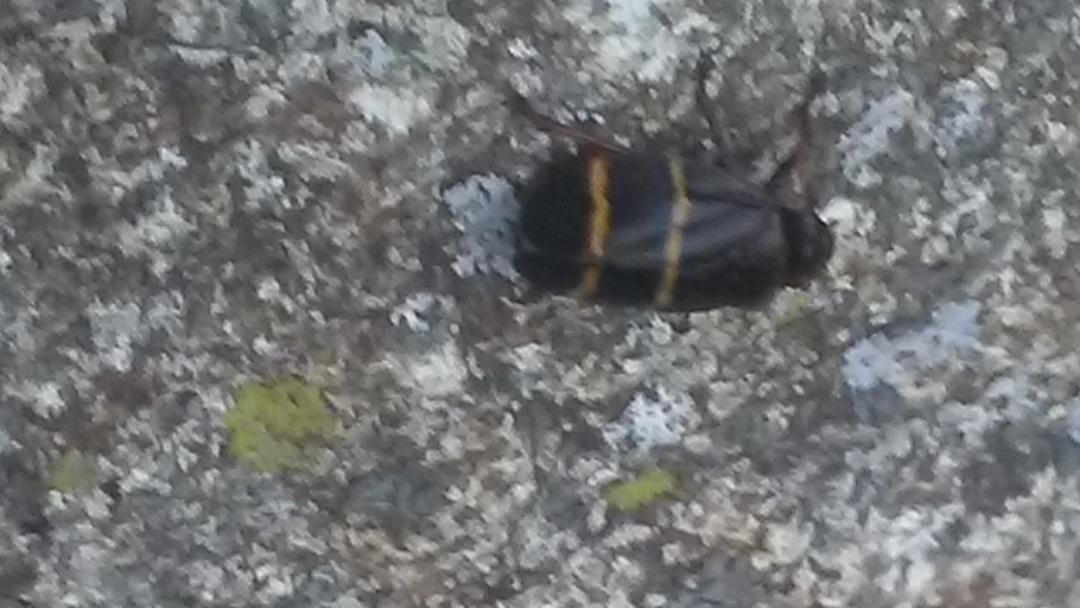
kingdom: Animalia
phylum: Arthropoda
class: Insecta
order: Hemiptera
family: Cercopidae
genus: Prosapia
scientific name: Prosapia bicincta
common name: Twolined spittlebug
